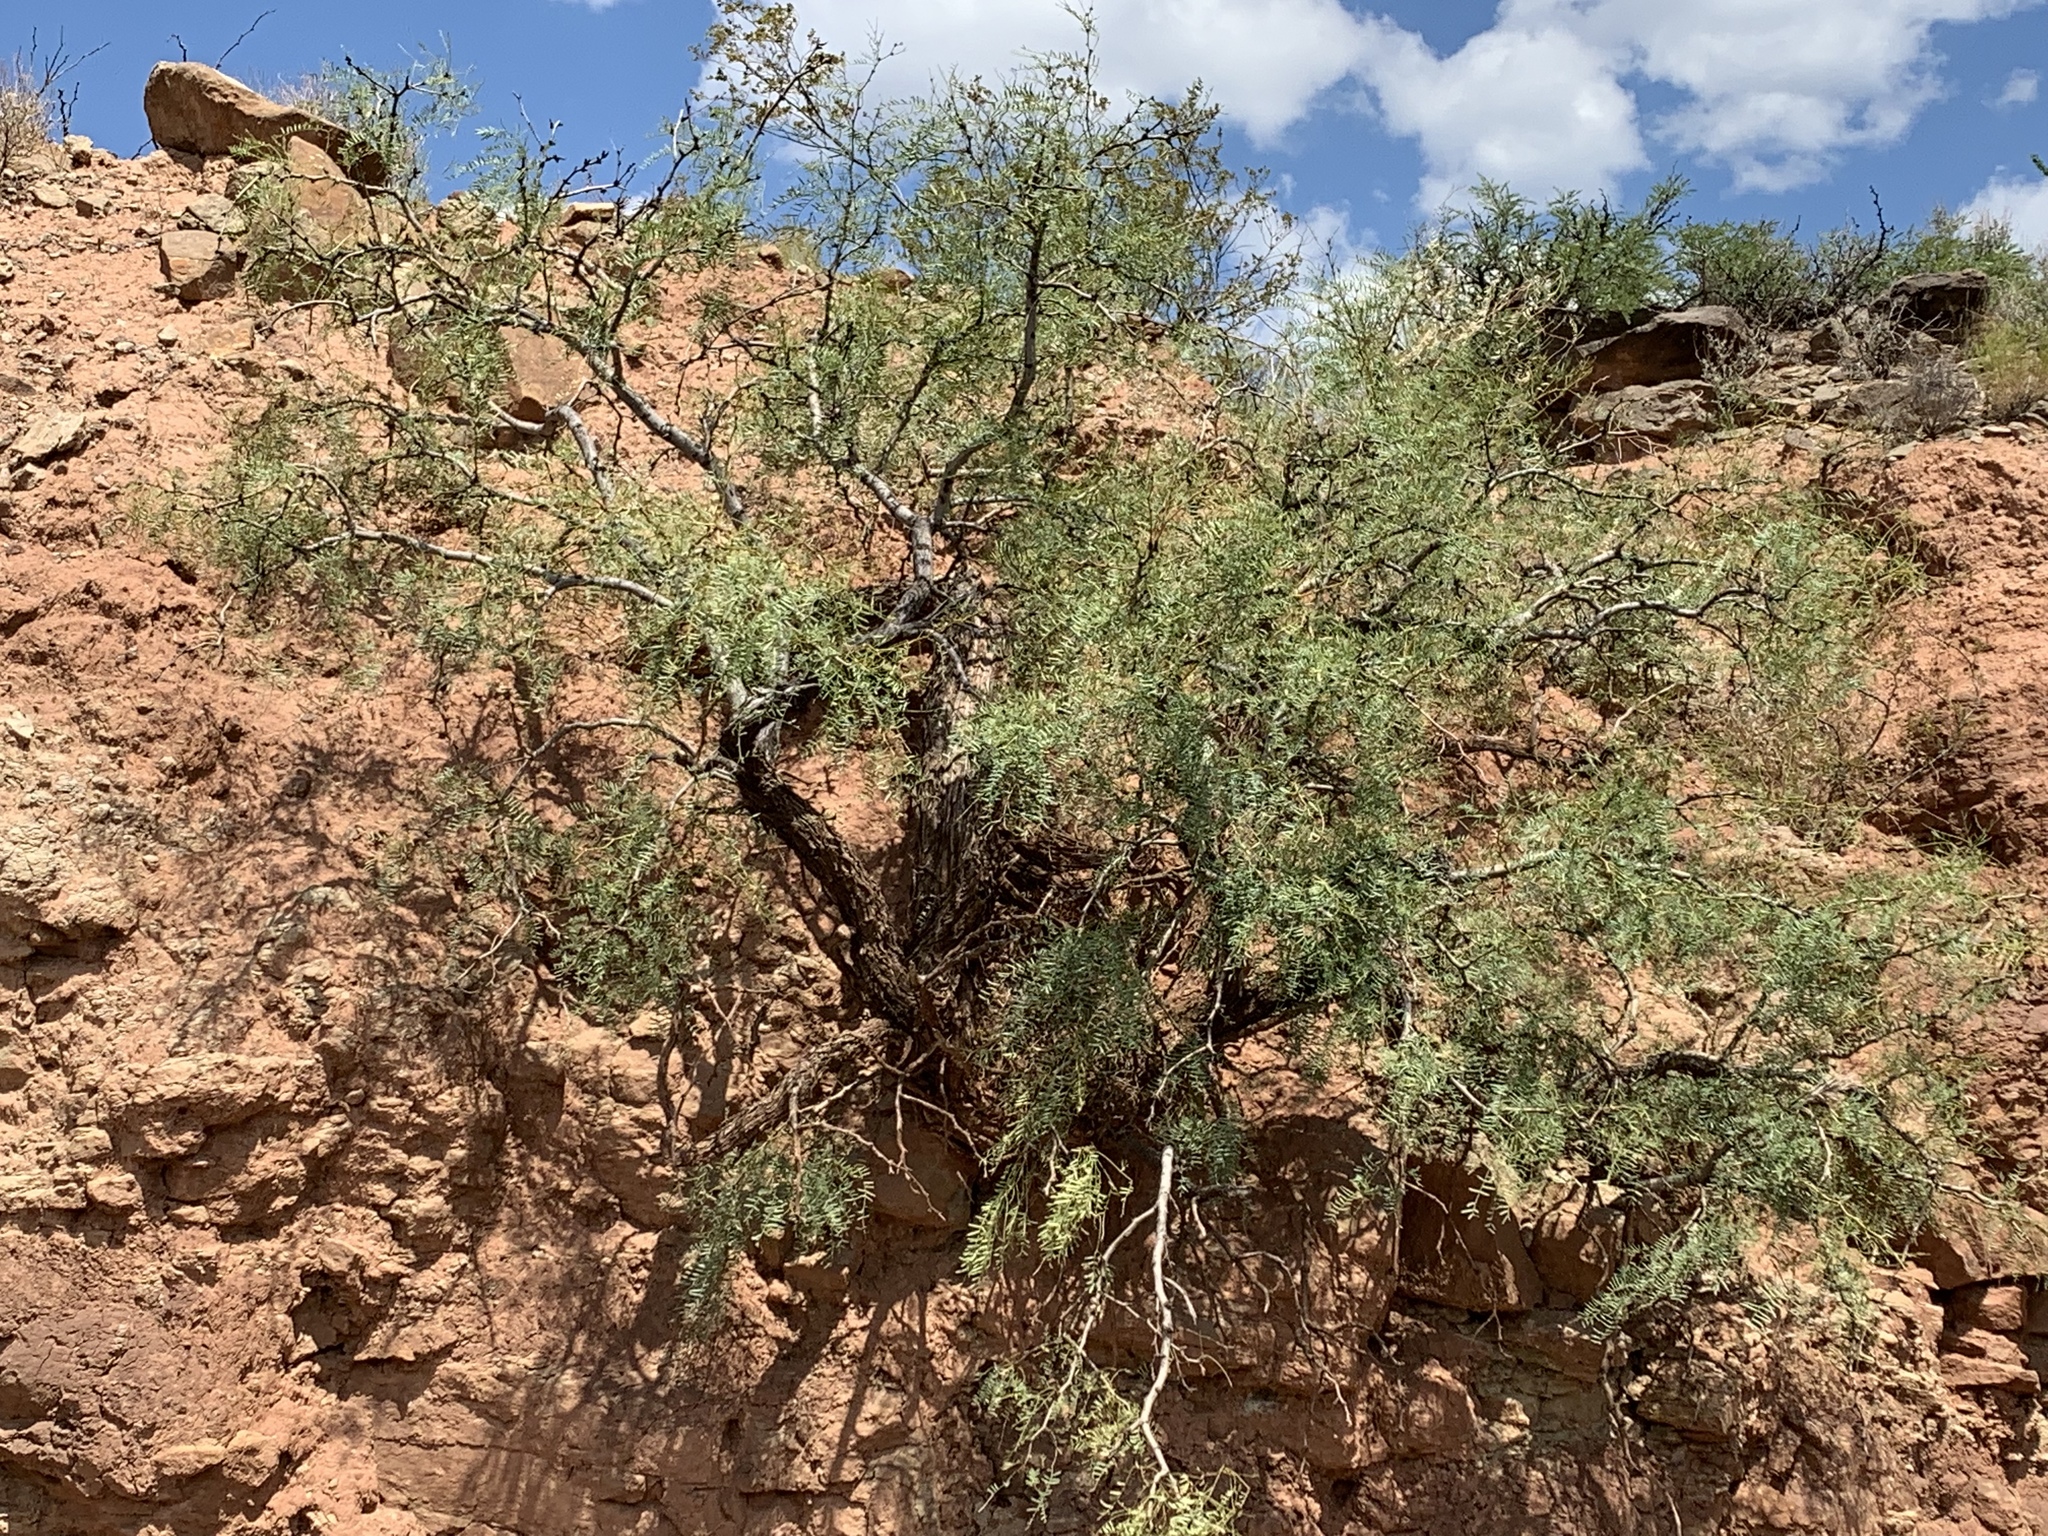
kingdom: Plantae
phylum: Tracheophyta
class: Magnoliopsida
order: Fabales
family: Fabaceae
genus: Prosopis
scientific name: Prosopis glandulosa
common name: Honey mesquite
